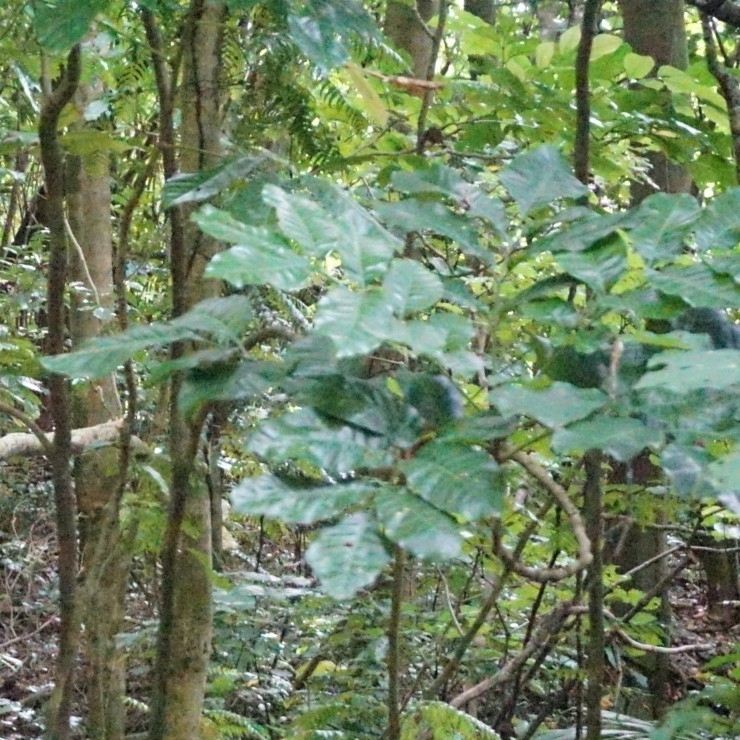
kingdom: Plantae
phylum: Tracheophyta
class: Magnoliopsida
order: Sapindales
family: Meliaceae
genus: Didymocheton
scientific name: Didymocheton spectabilis
